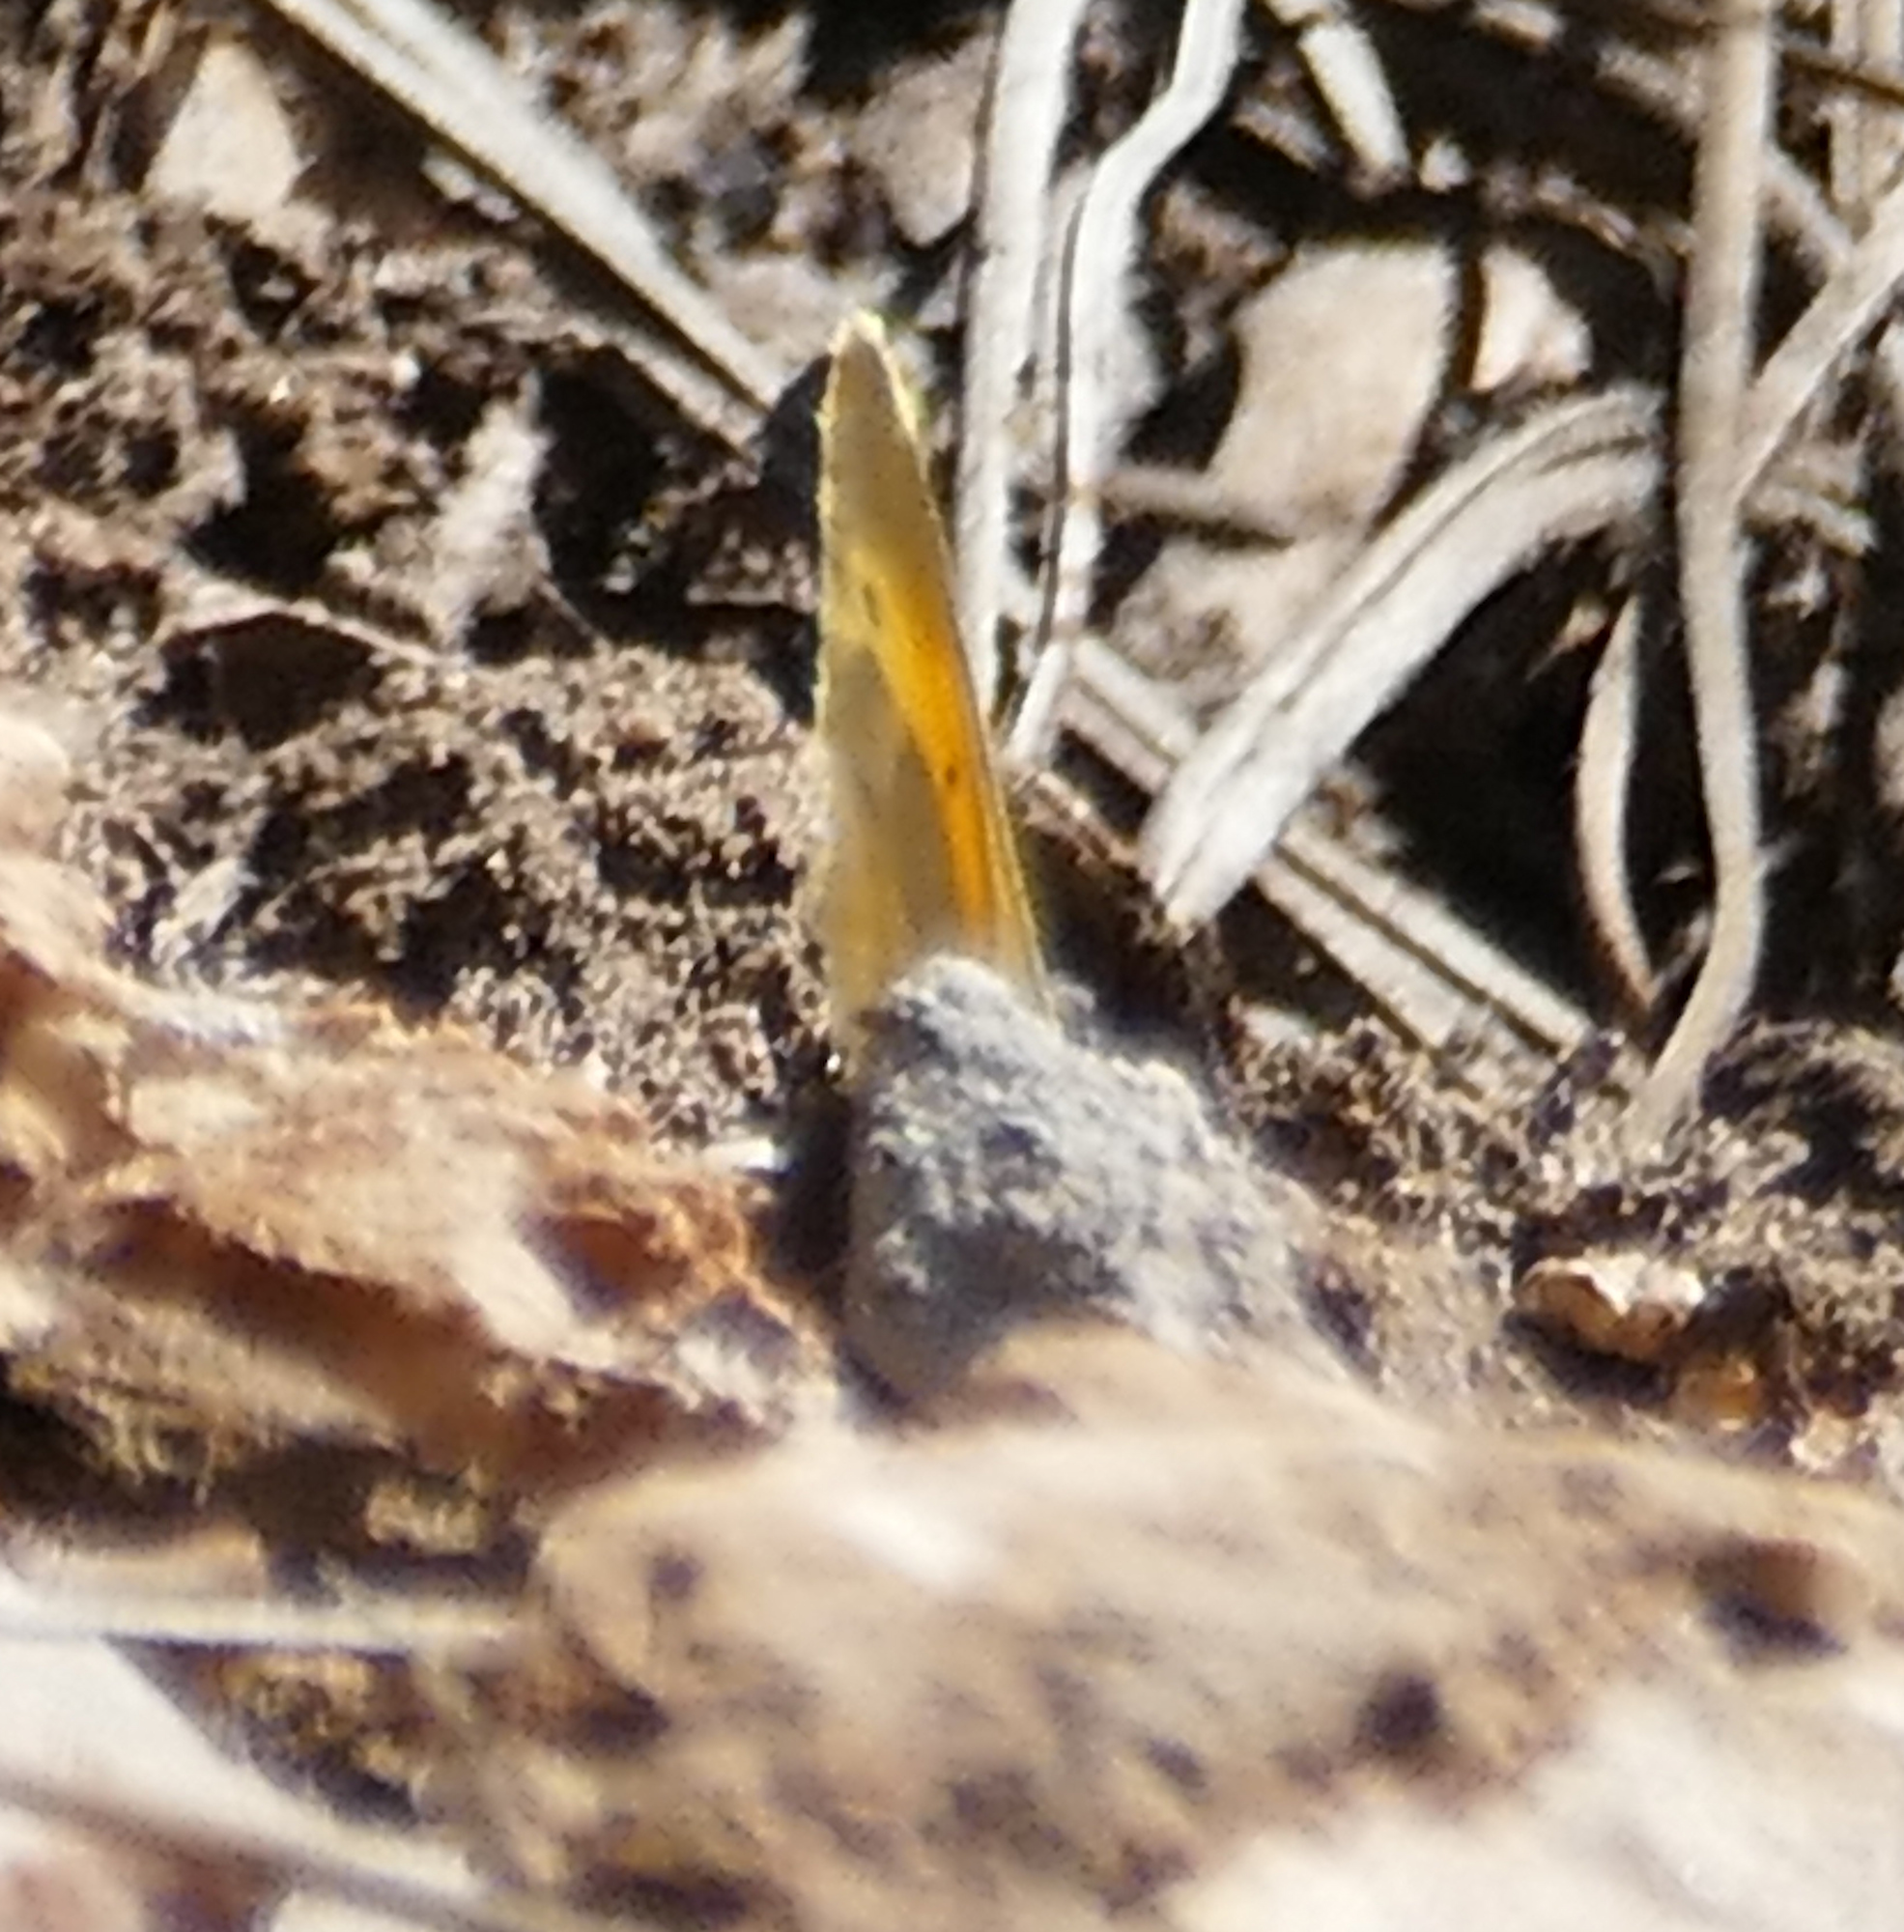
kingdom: Animalia
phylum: Arthropoda
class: Insecta
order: Lepidoptera
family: Pieridae
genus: Nathalis
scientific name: Nathalis iole
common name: Dainty sulphur
